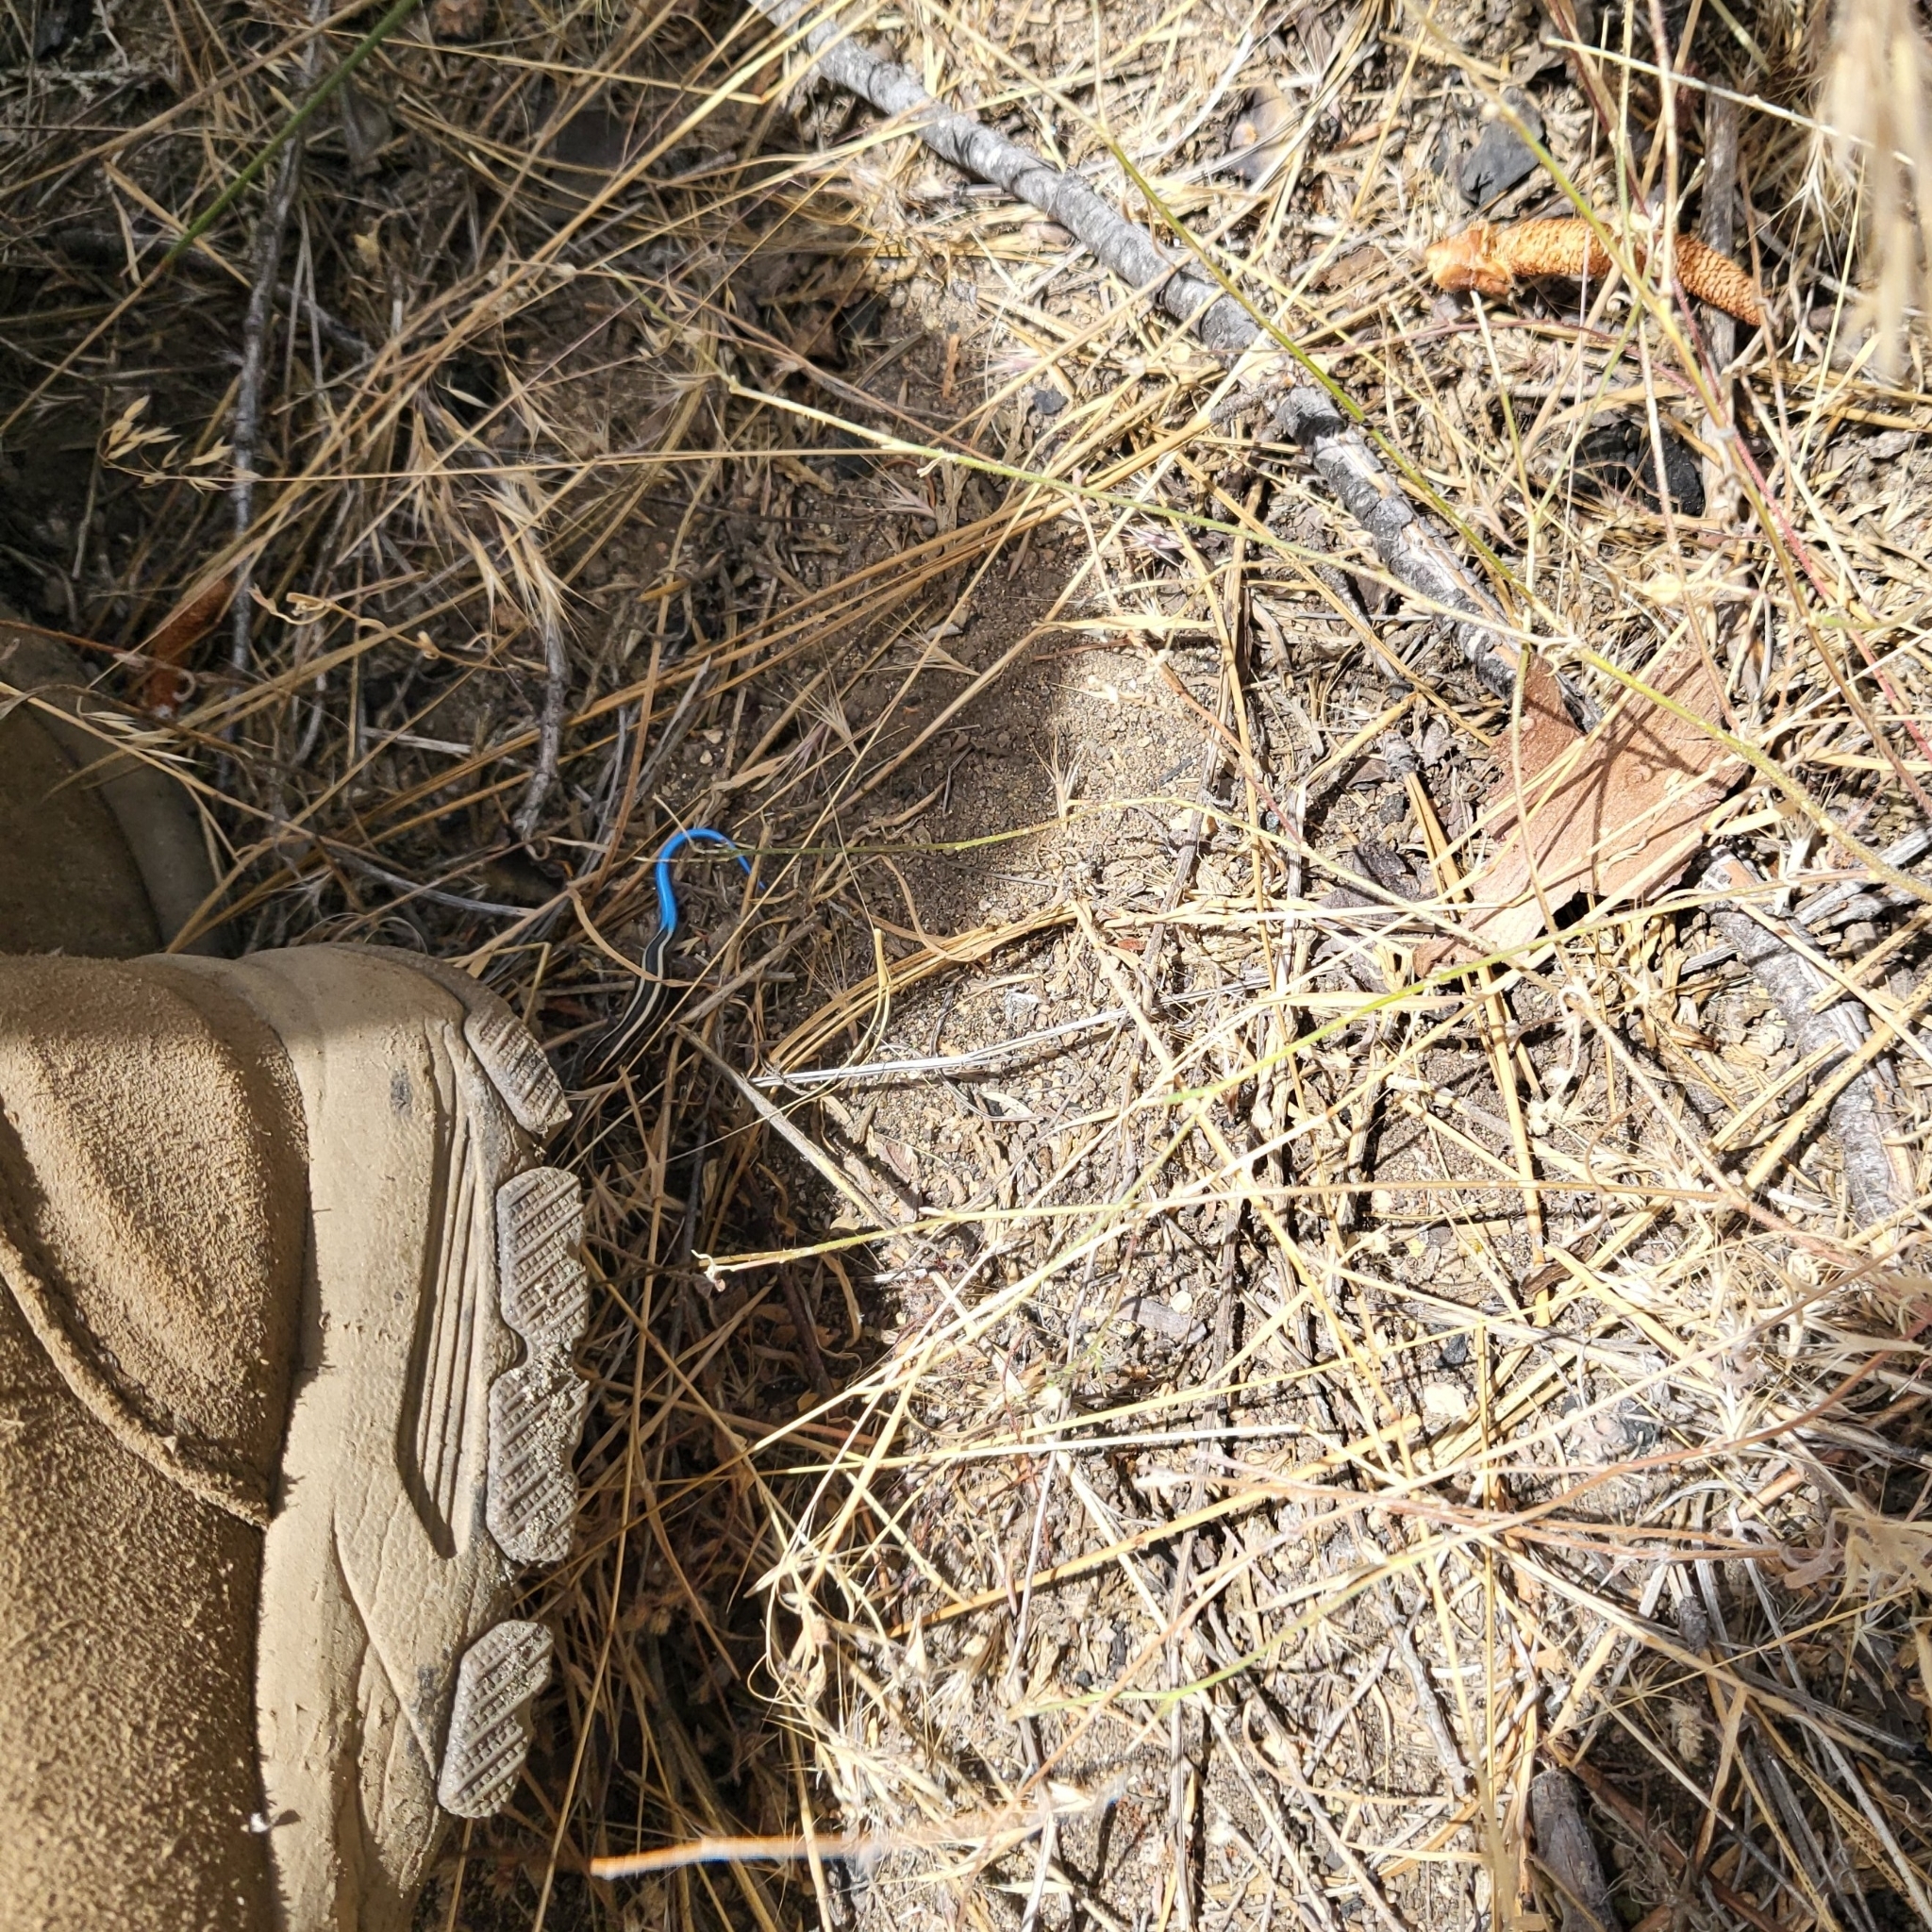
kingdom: Animalia
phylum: Chordata
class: Squamata
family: Scincidae
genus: Plestiodon
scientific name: Plestiodon gilberti
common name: Gilbert's skink
